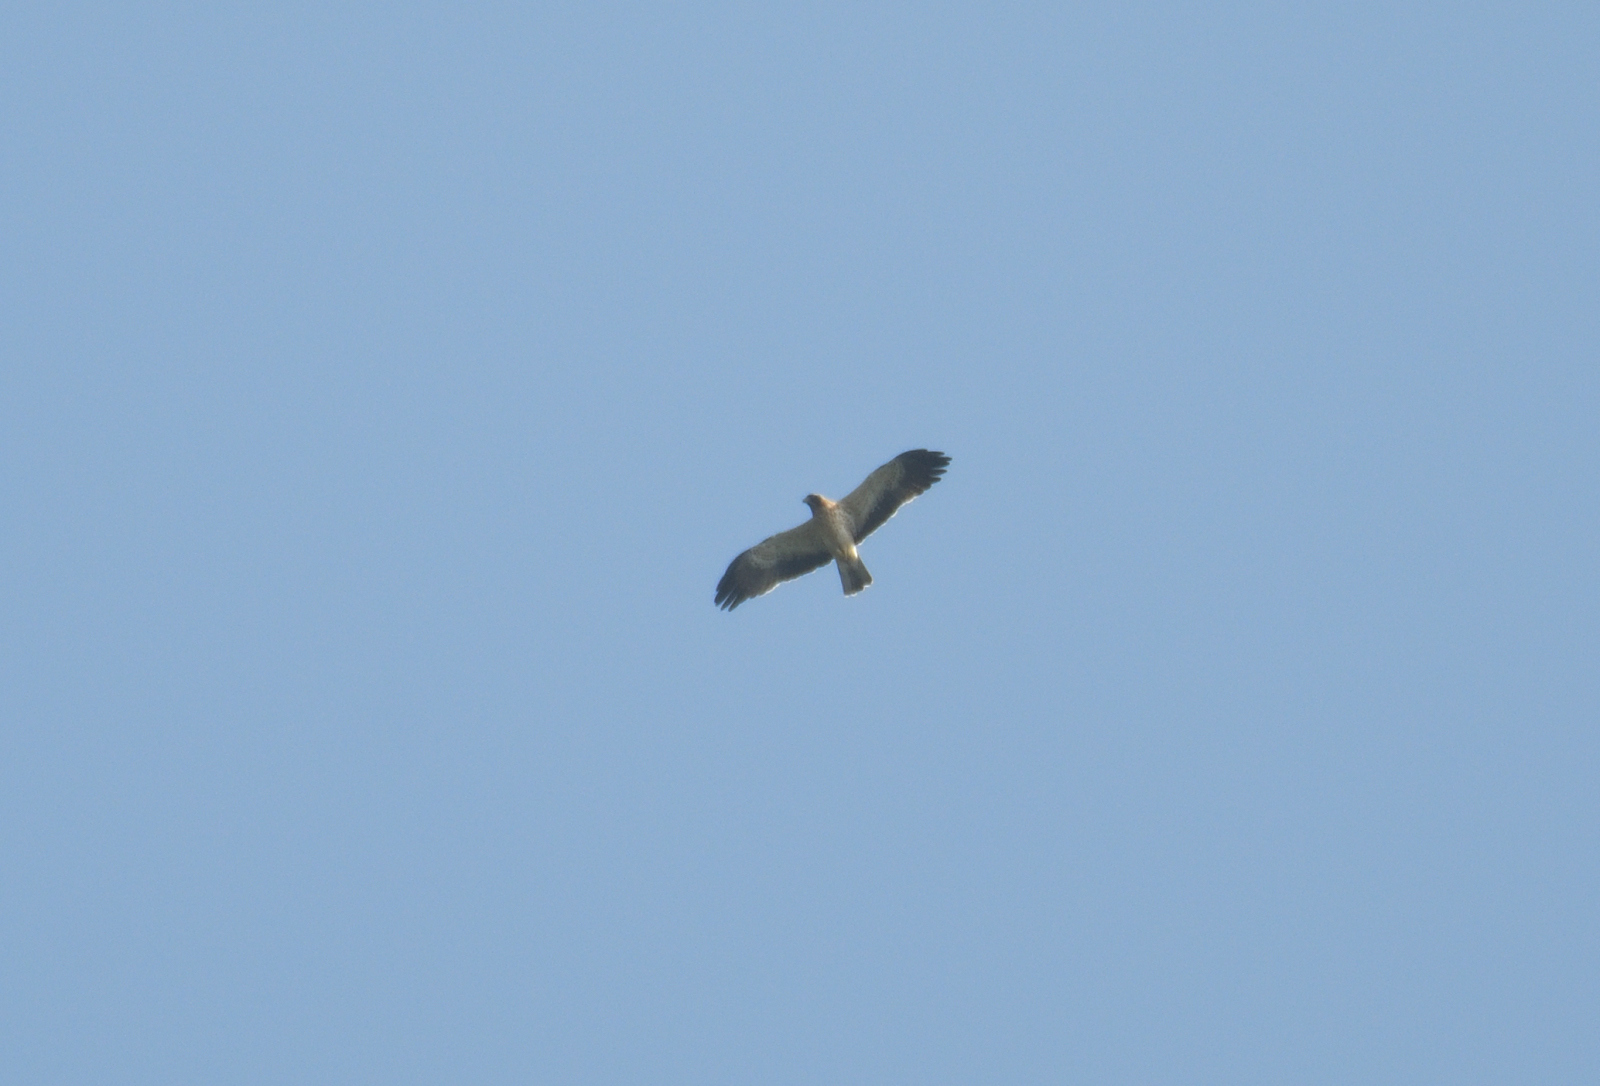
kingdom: Animalia
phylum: Chordata
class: Aves
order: Accipitriformes
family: Accipitridae
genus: Hieraaetus
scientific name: Hieraaetus pennatus
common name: Booted eagle
